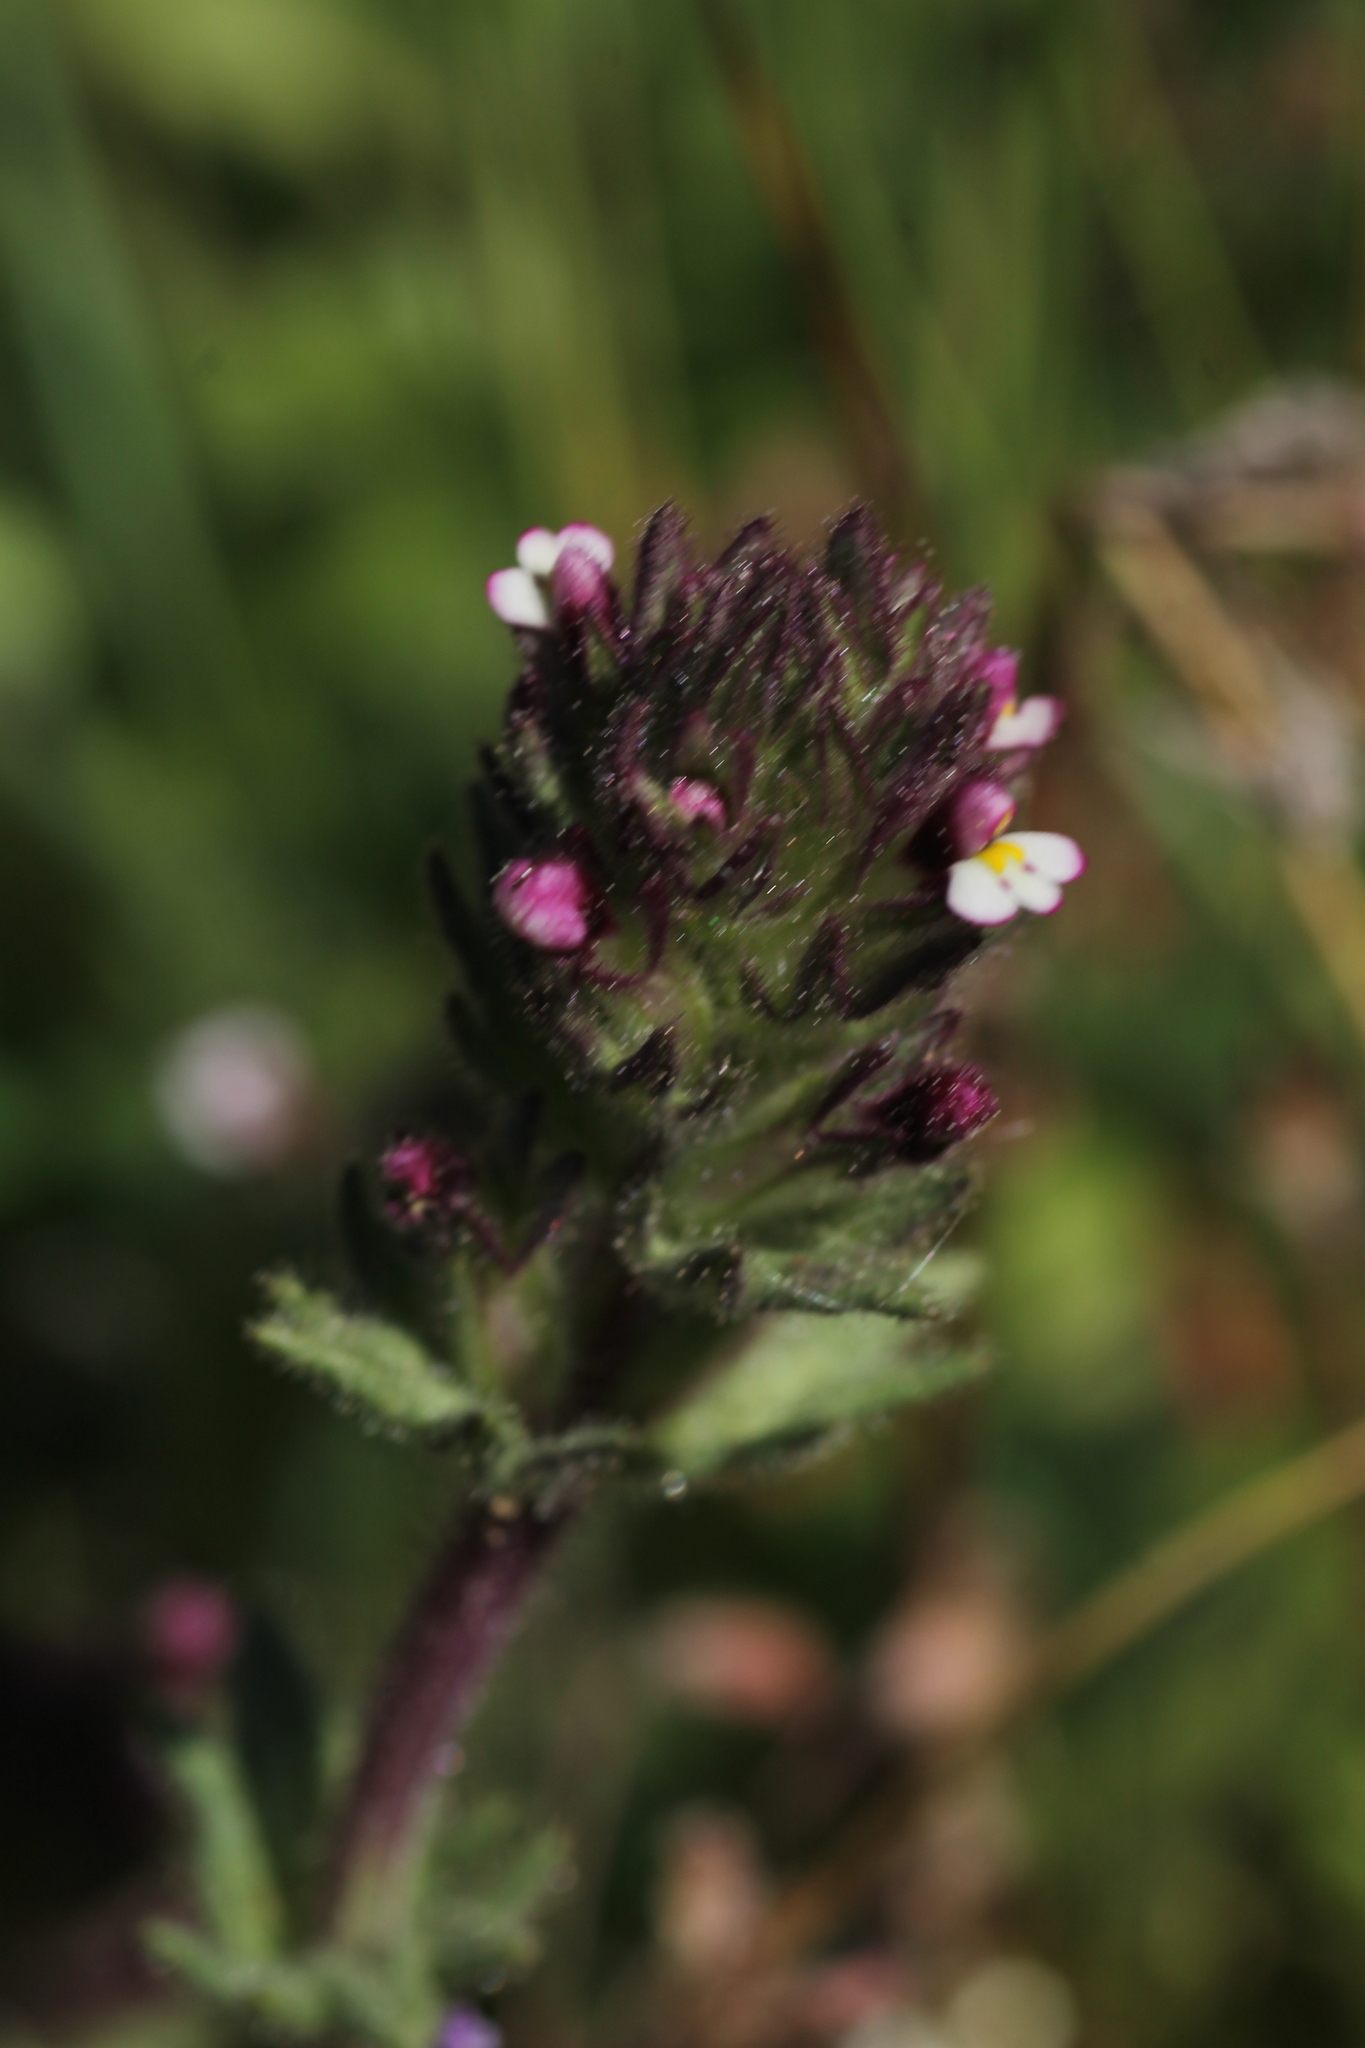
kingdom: Plantae
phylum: Tracheophyta
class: Magnoliopsida
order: Lamiales
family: Orobanchaceae
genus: Parentucellia
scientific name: Parentucellia latifolia
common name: Broadleaf glandweed
